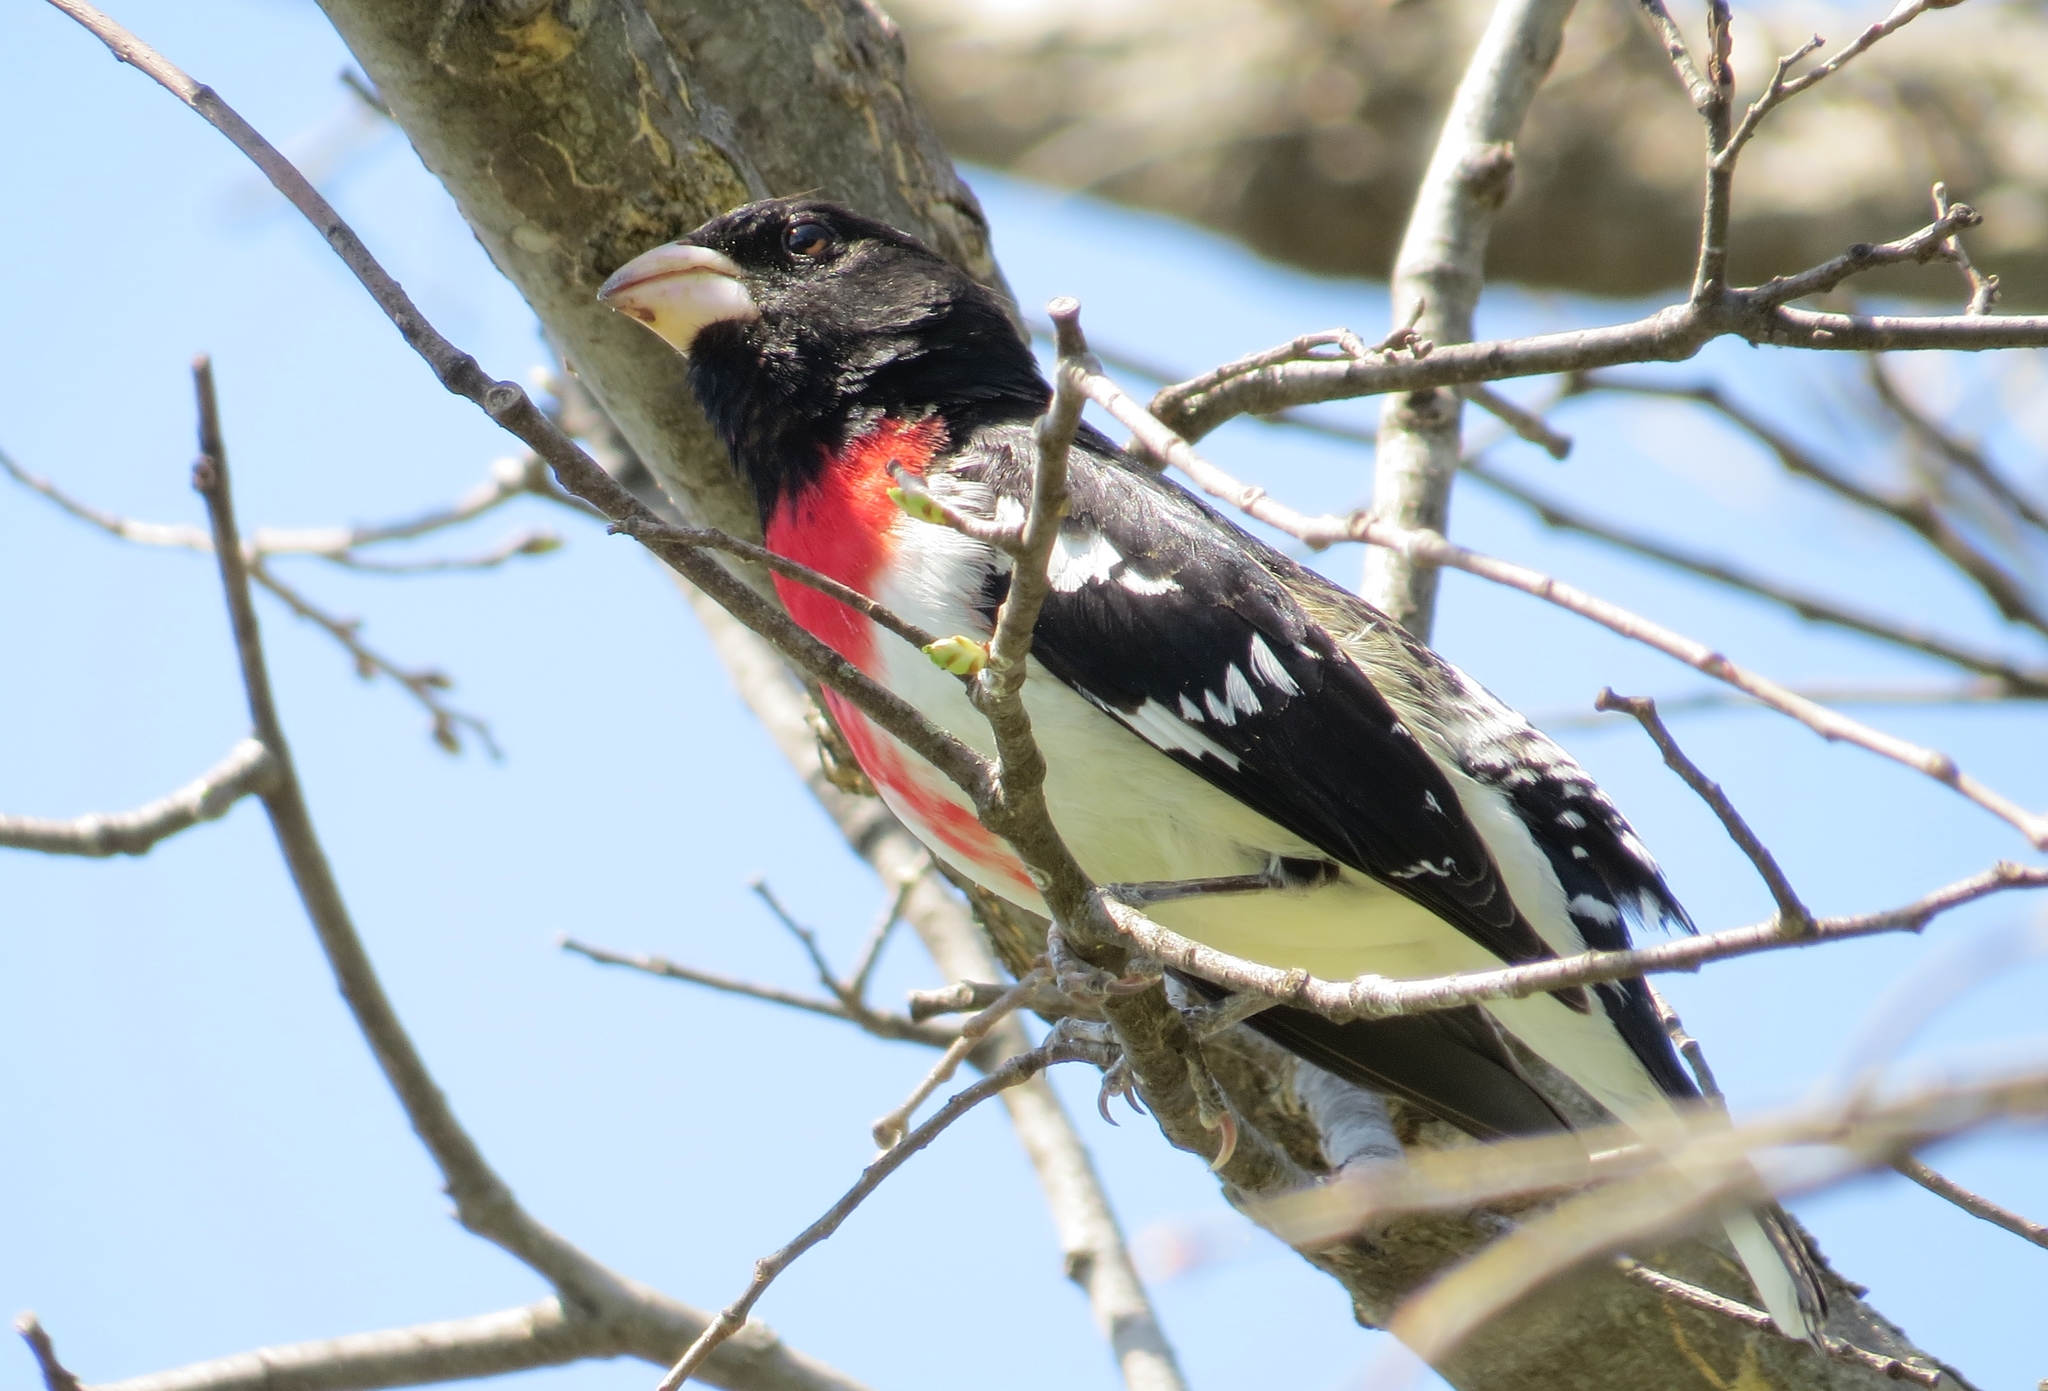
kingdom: Animalia
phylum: Chordata
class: Aves
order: Passeriformes
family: Cardinalidae
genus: Pheucticus
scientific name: Pheucticus ludovicianus
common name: Rose-breasted grosbeak
